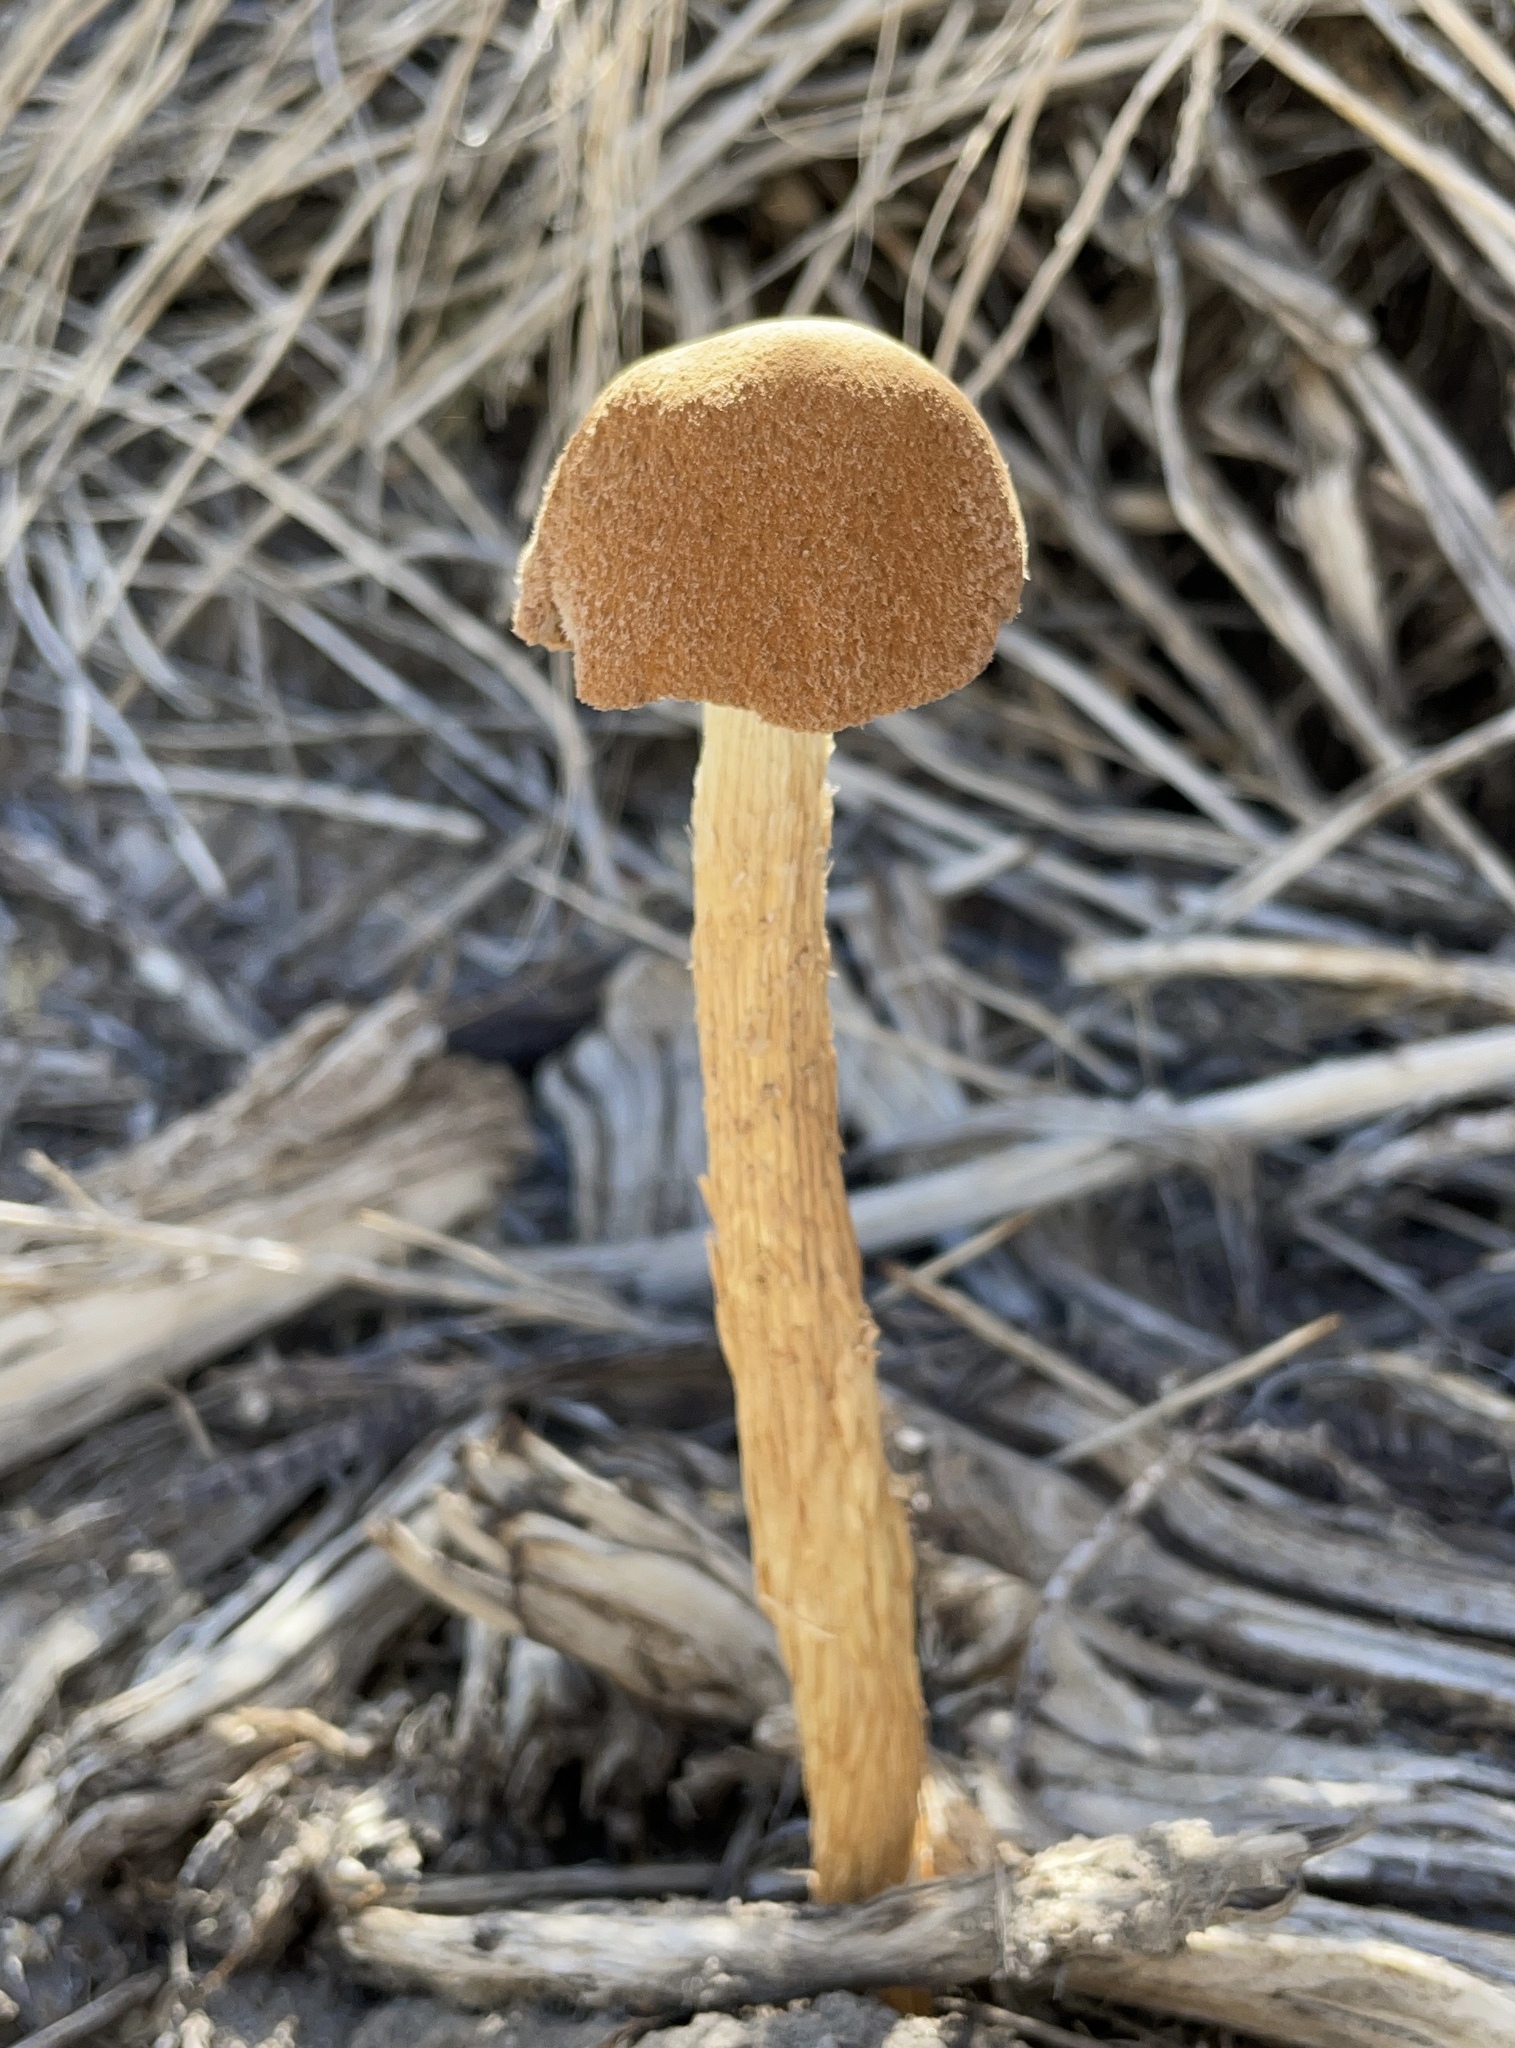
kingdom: Fungi
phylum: Basidiomycota
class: Agaricomycetes
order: Agaricales
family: Agaricaceae
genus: Battarrea
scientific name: Battarrea phalloides
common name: Sandy stiltball
